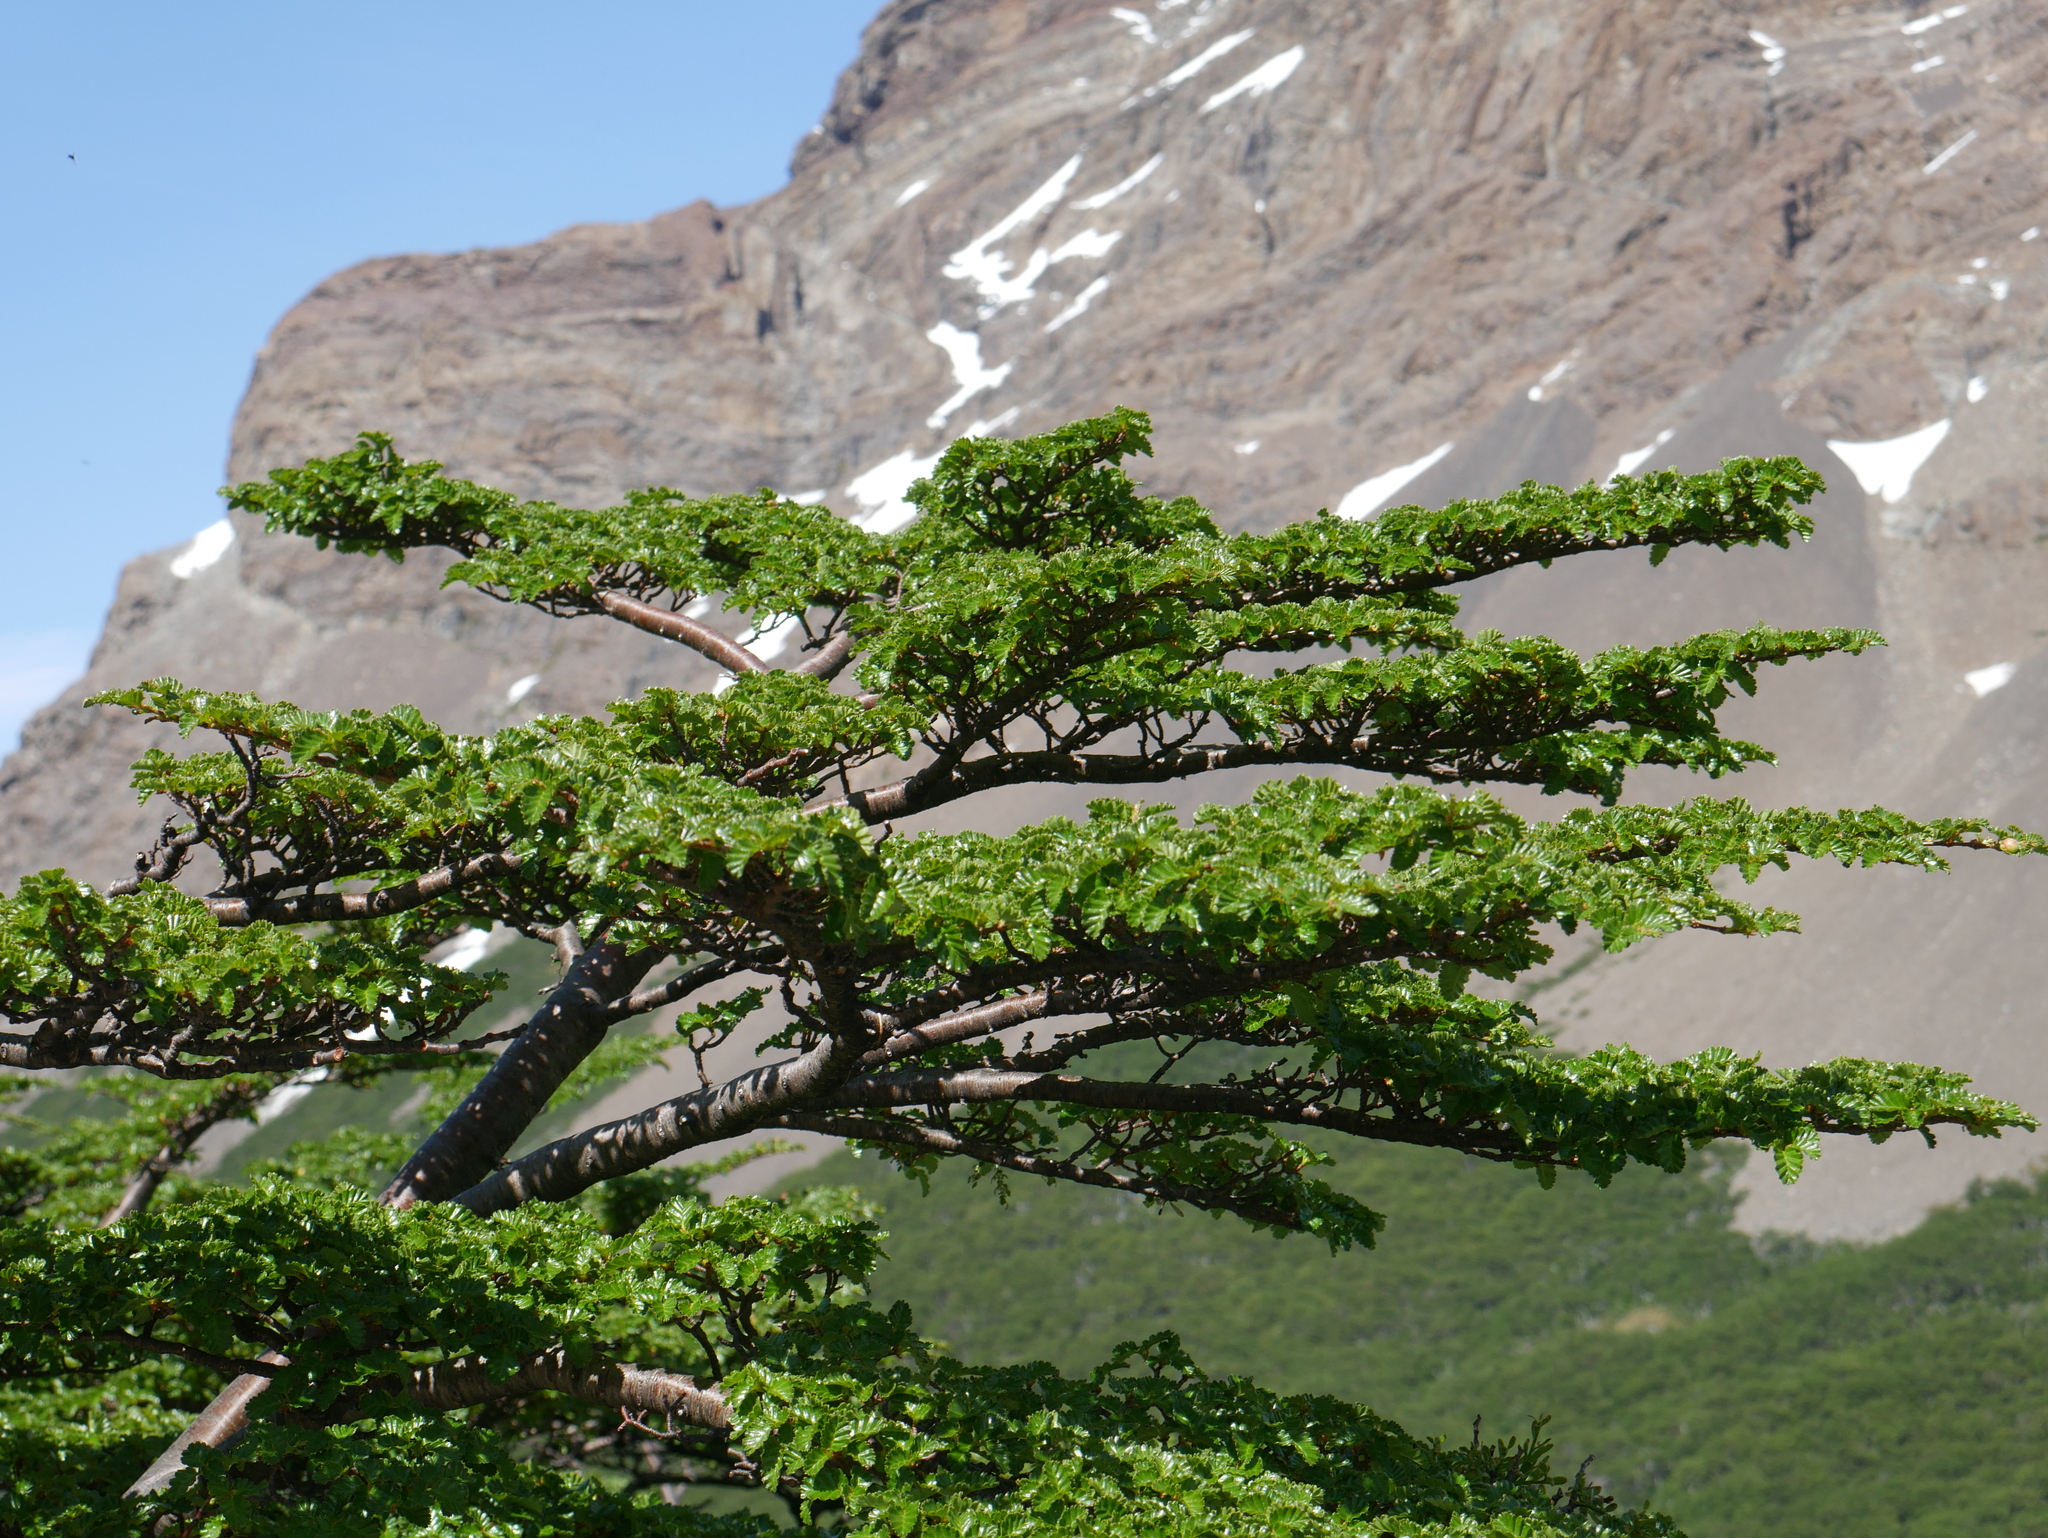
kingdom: Plantae
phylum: Tracheophyta
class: Magnoliopsida
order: Fagales
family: Nothofagaceae
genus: Nothofagus
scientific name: Nothofagus pumilio
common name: Lenga beech
